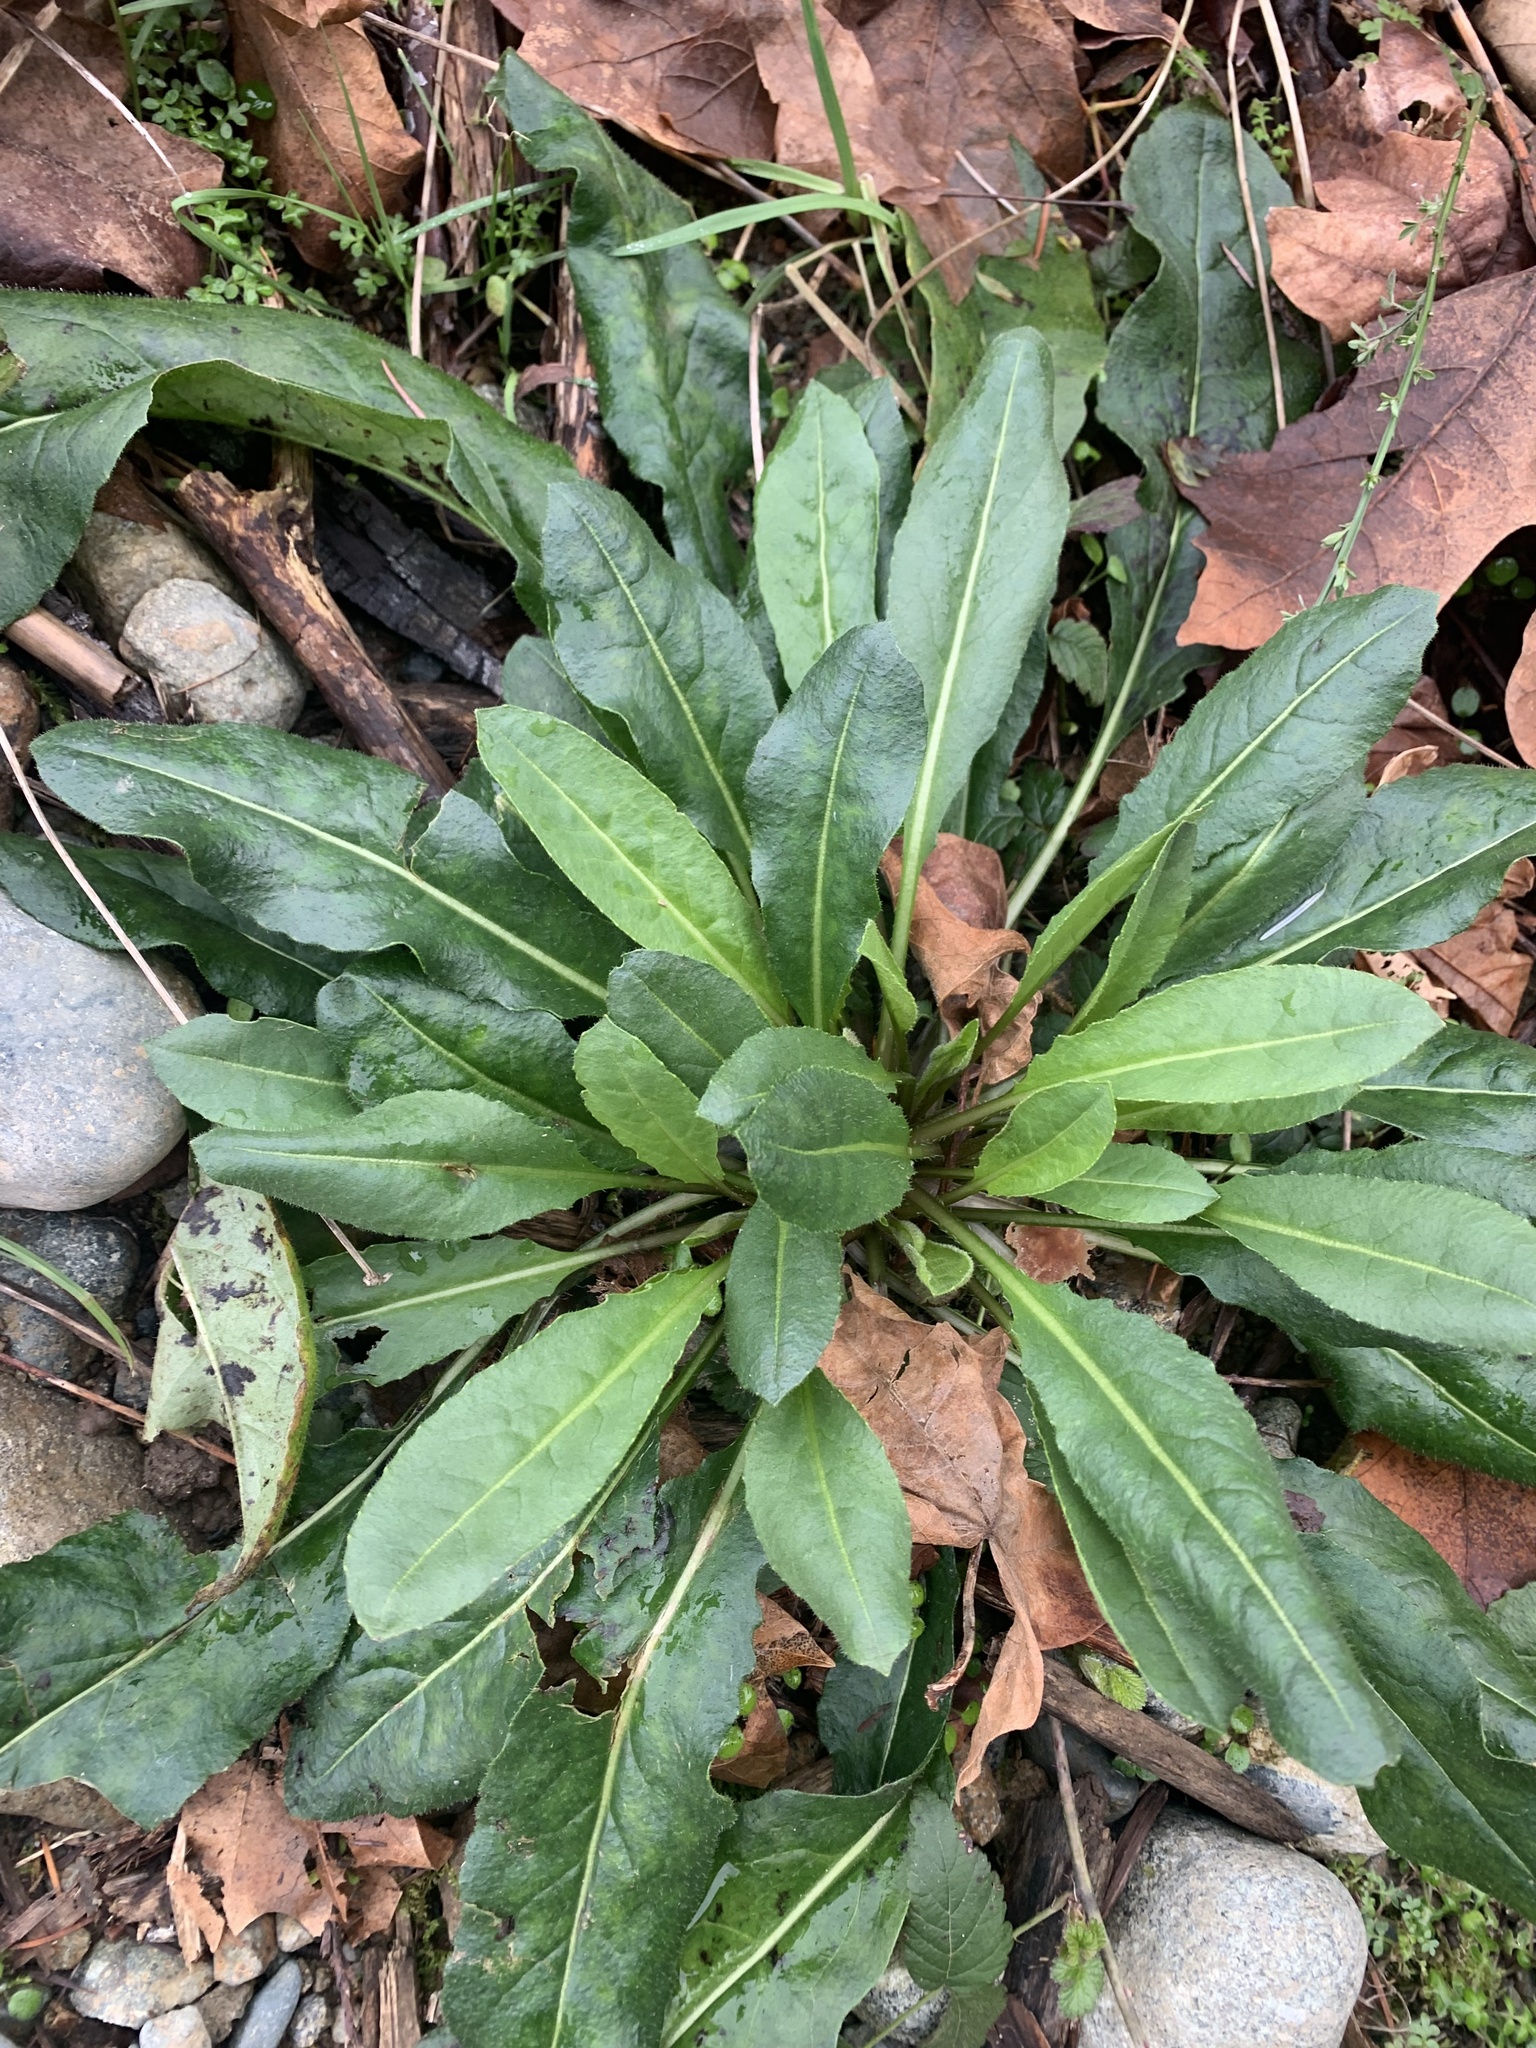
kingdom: Plantae
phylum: Tracheophyta
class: Magnoliopsida
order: Brassicales
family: Brassicaceae
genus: Hesperis
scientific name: Hesperis matronalis
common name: Dame's-violet
